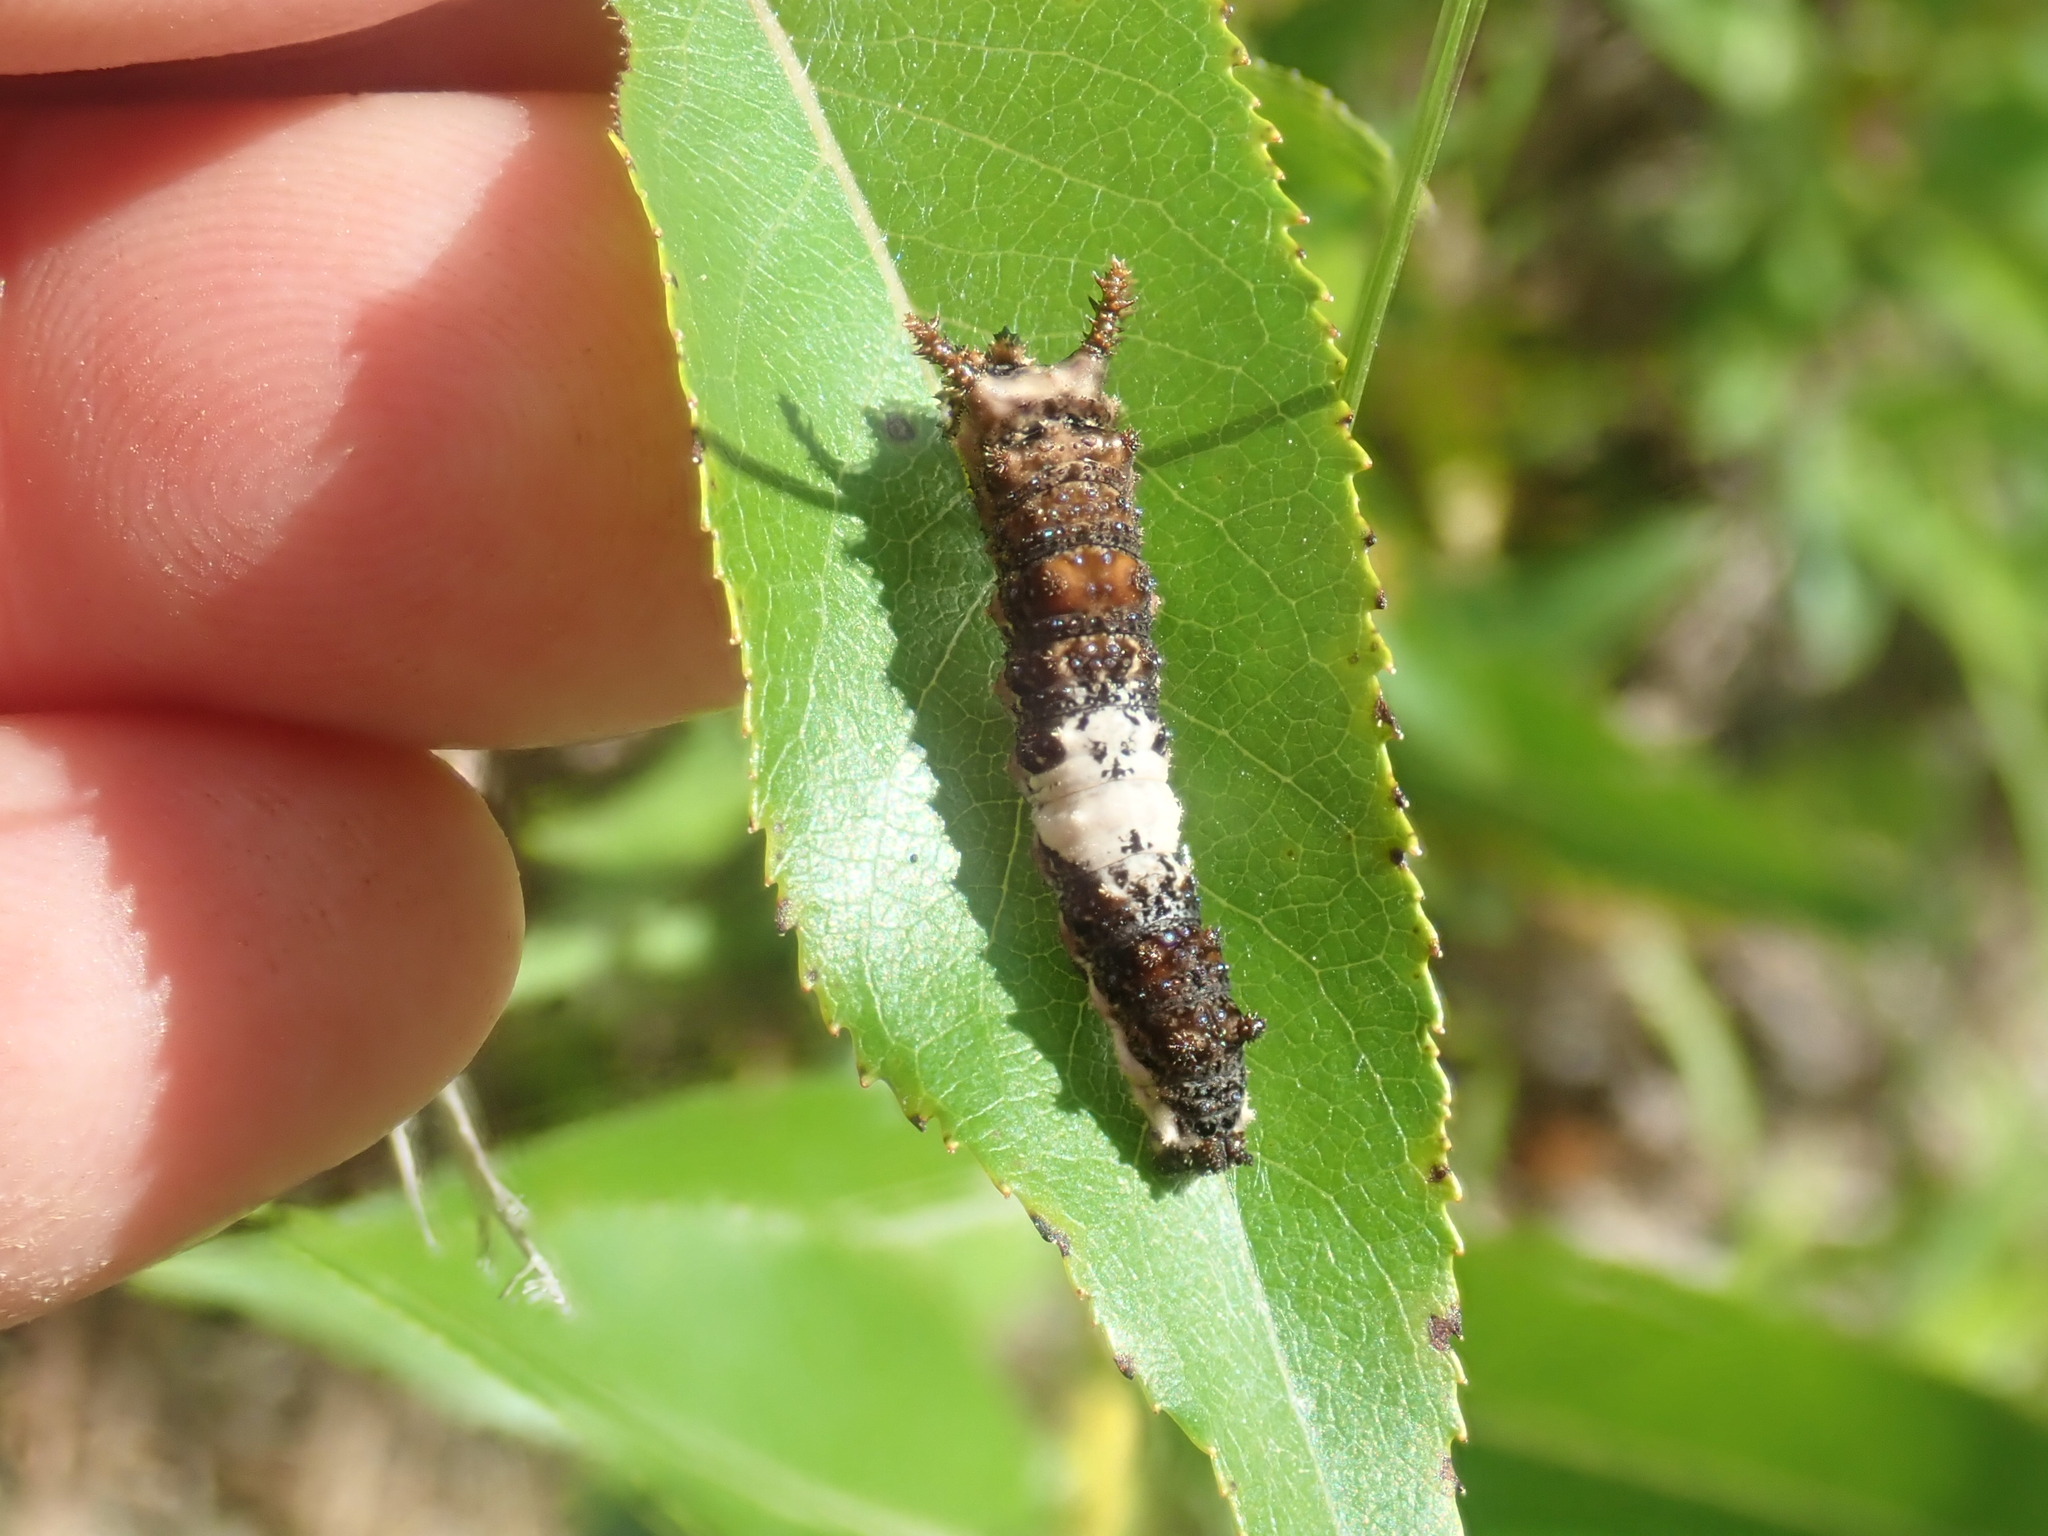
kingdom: Animalia
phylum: Arthropoda
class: Insecta
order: Lepidoptera
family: Nymphalidae
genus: Limenitis
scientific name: Limenitis archippus
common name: Viceroy
